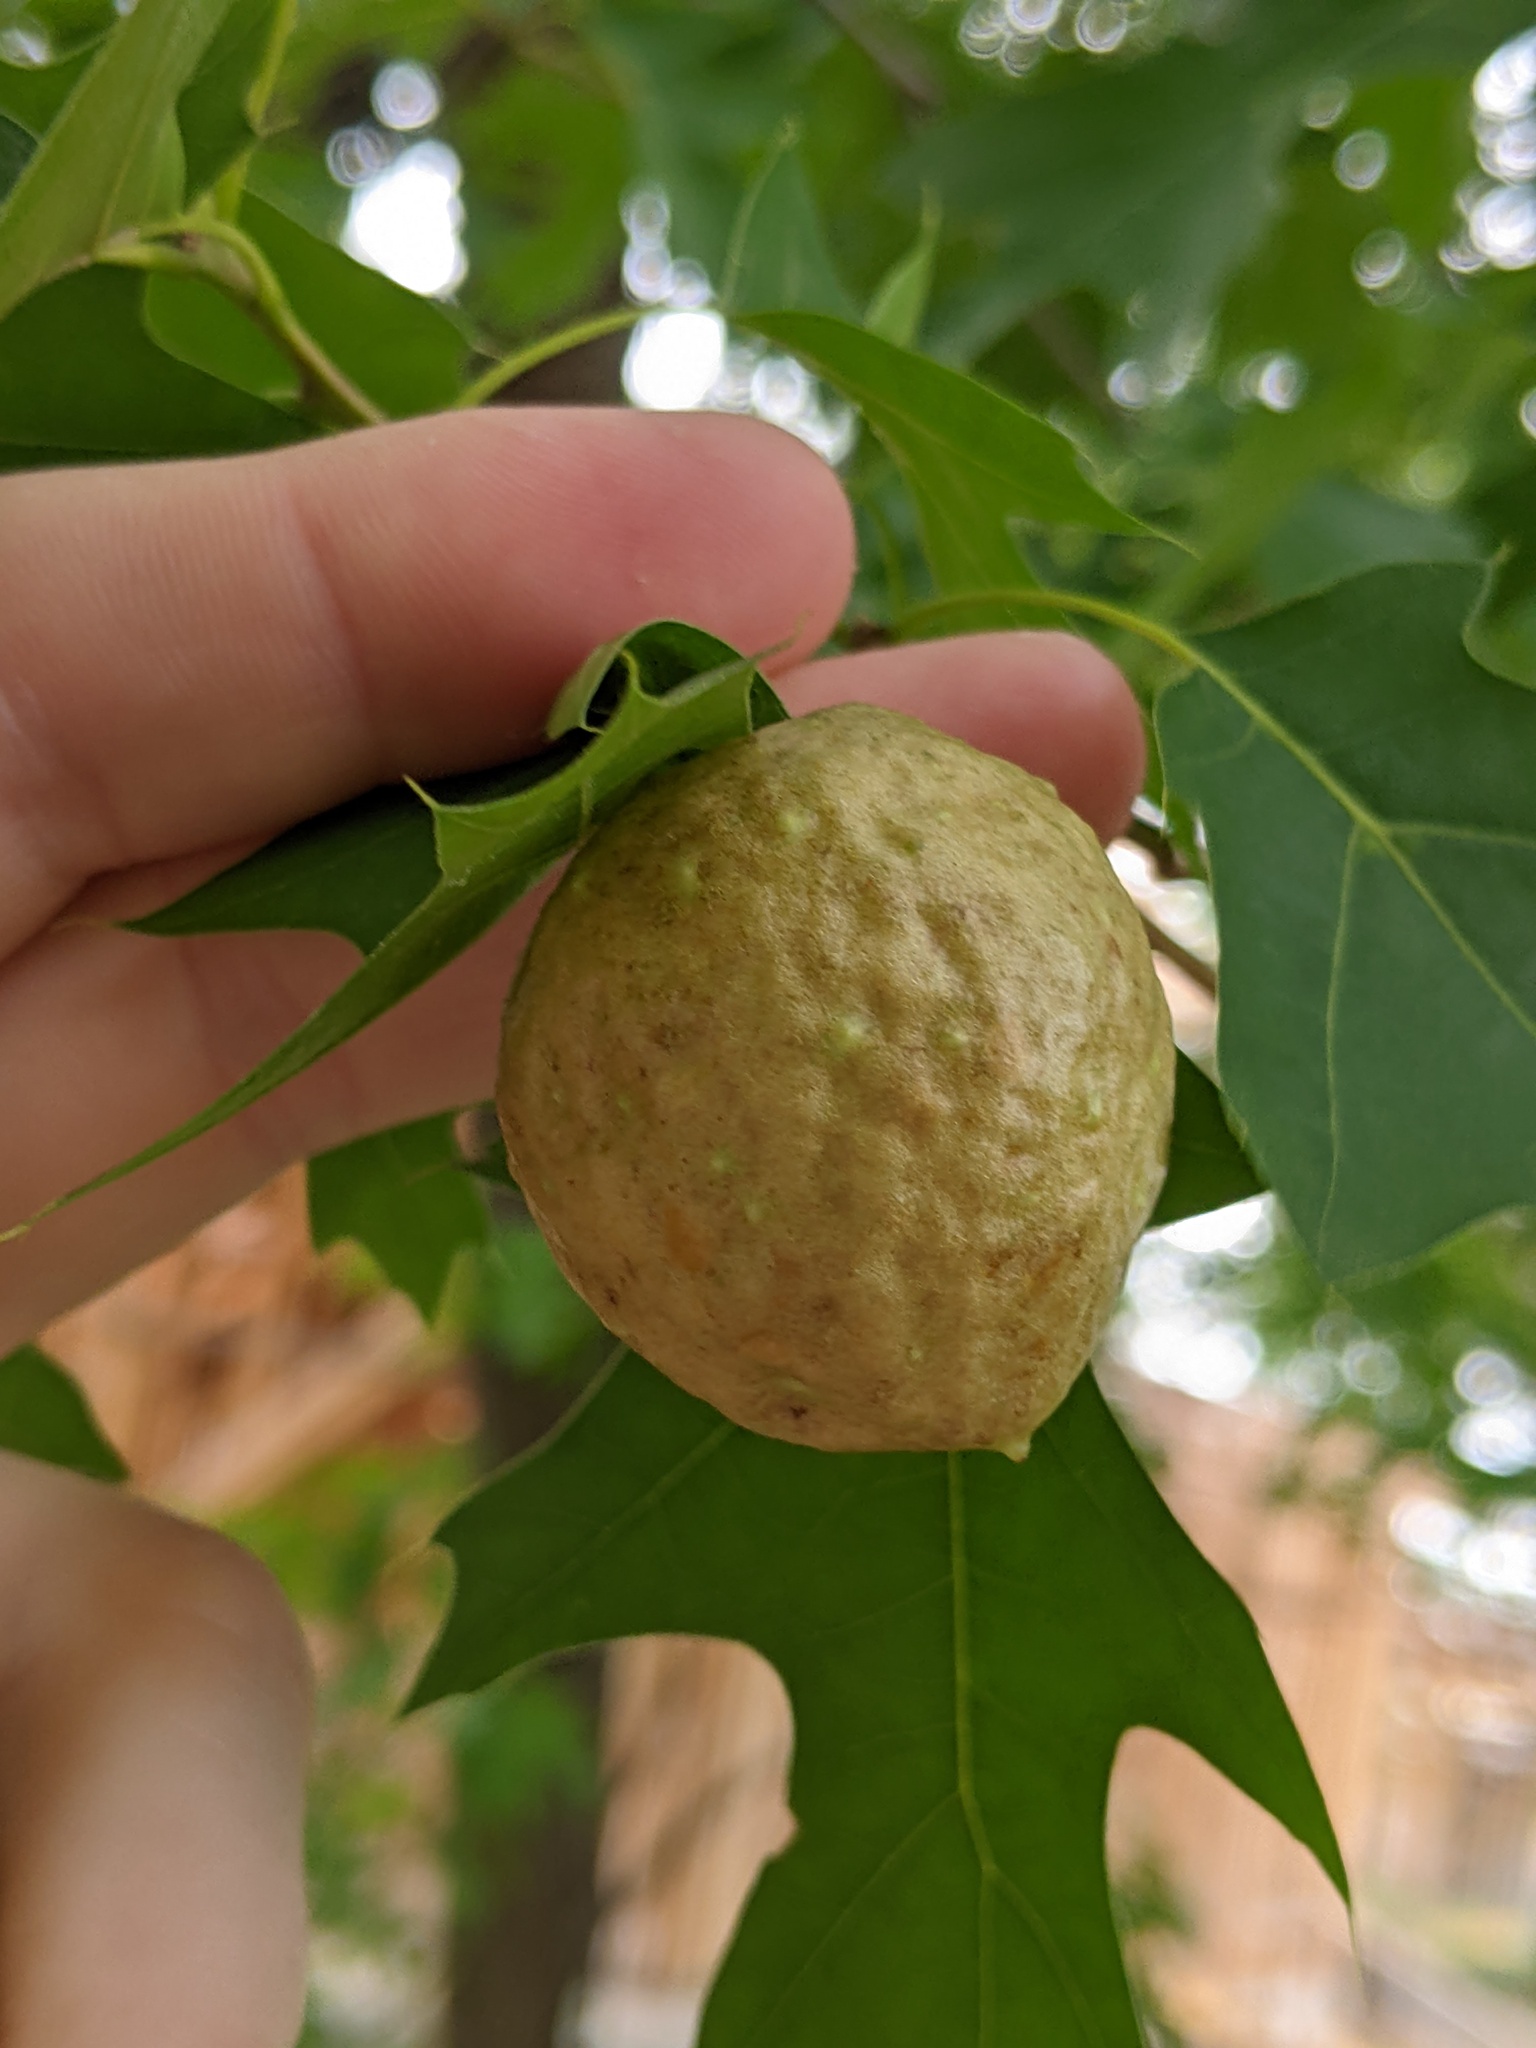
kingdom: Animalia
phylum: Arthropoda
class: Insecta
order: Hymenoptera
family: Cynipidae
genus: Amphibolips
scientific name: Amphibolips
